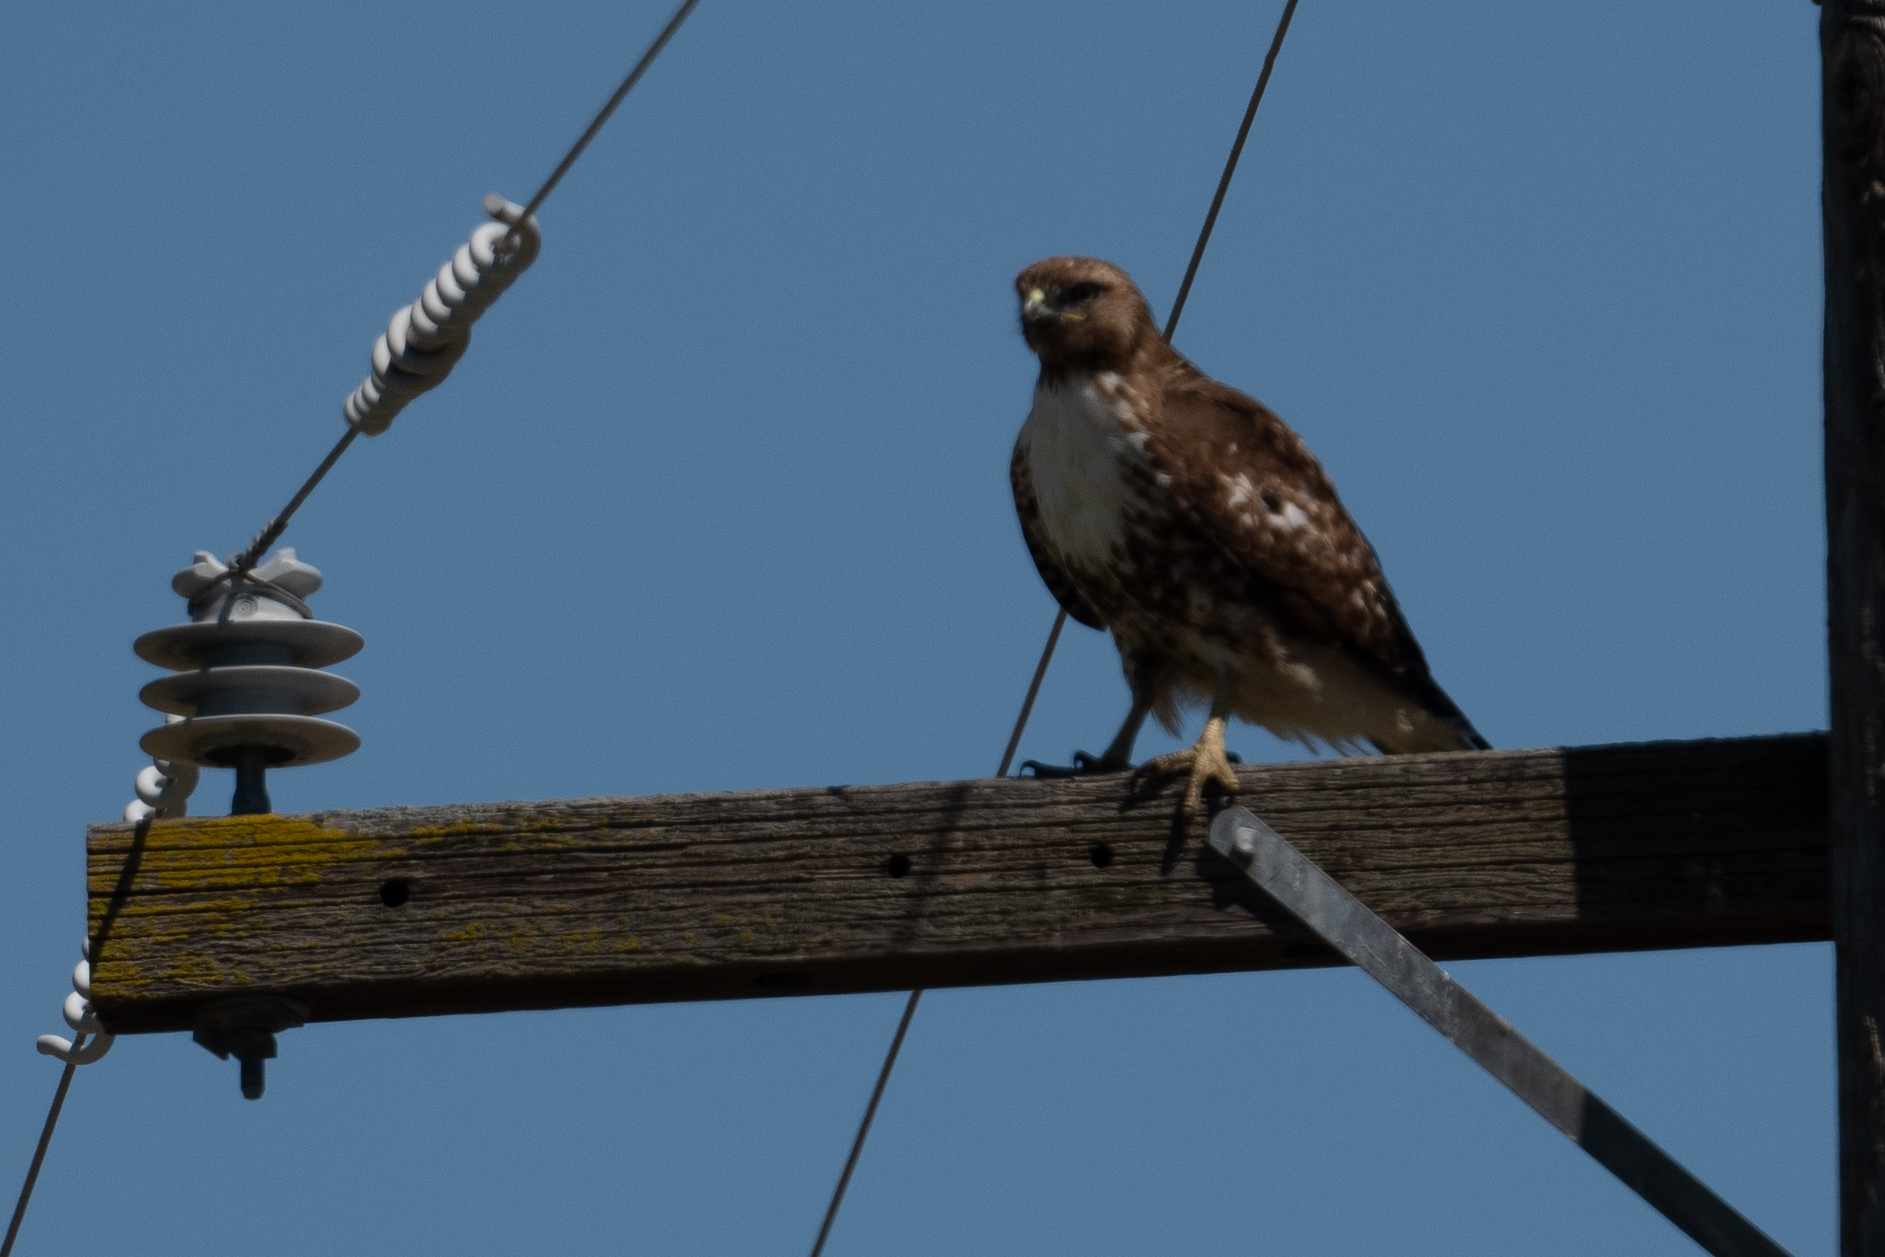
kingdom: Animalia
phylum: Chordata
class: Aves
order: Accipitriformes
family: Accipitridae
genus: Buteo
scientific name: Buteo jamaicensis
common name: Red-tailed hawk
